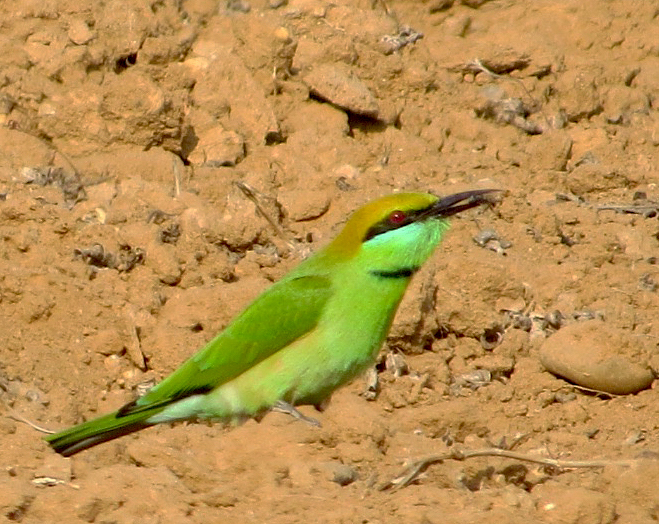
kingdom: Animalia
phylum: Chordata
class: Aves
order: Coraciiformes
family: Meropidae
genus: Merops
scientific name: Merops orientalis
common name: Green bee-eater
